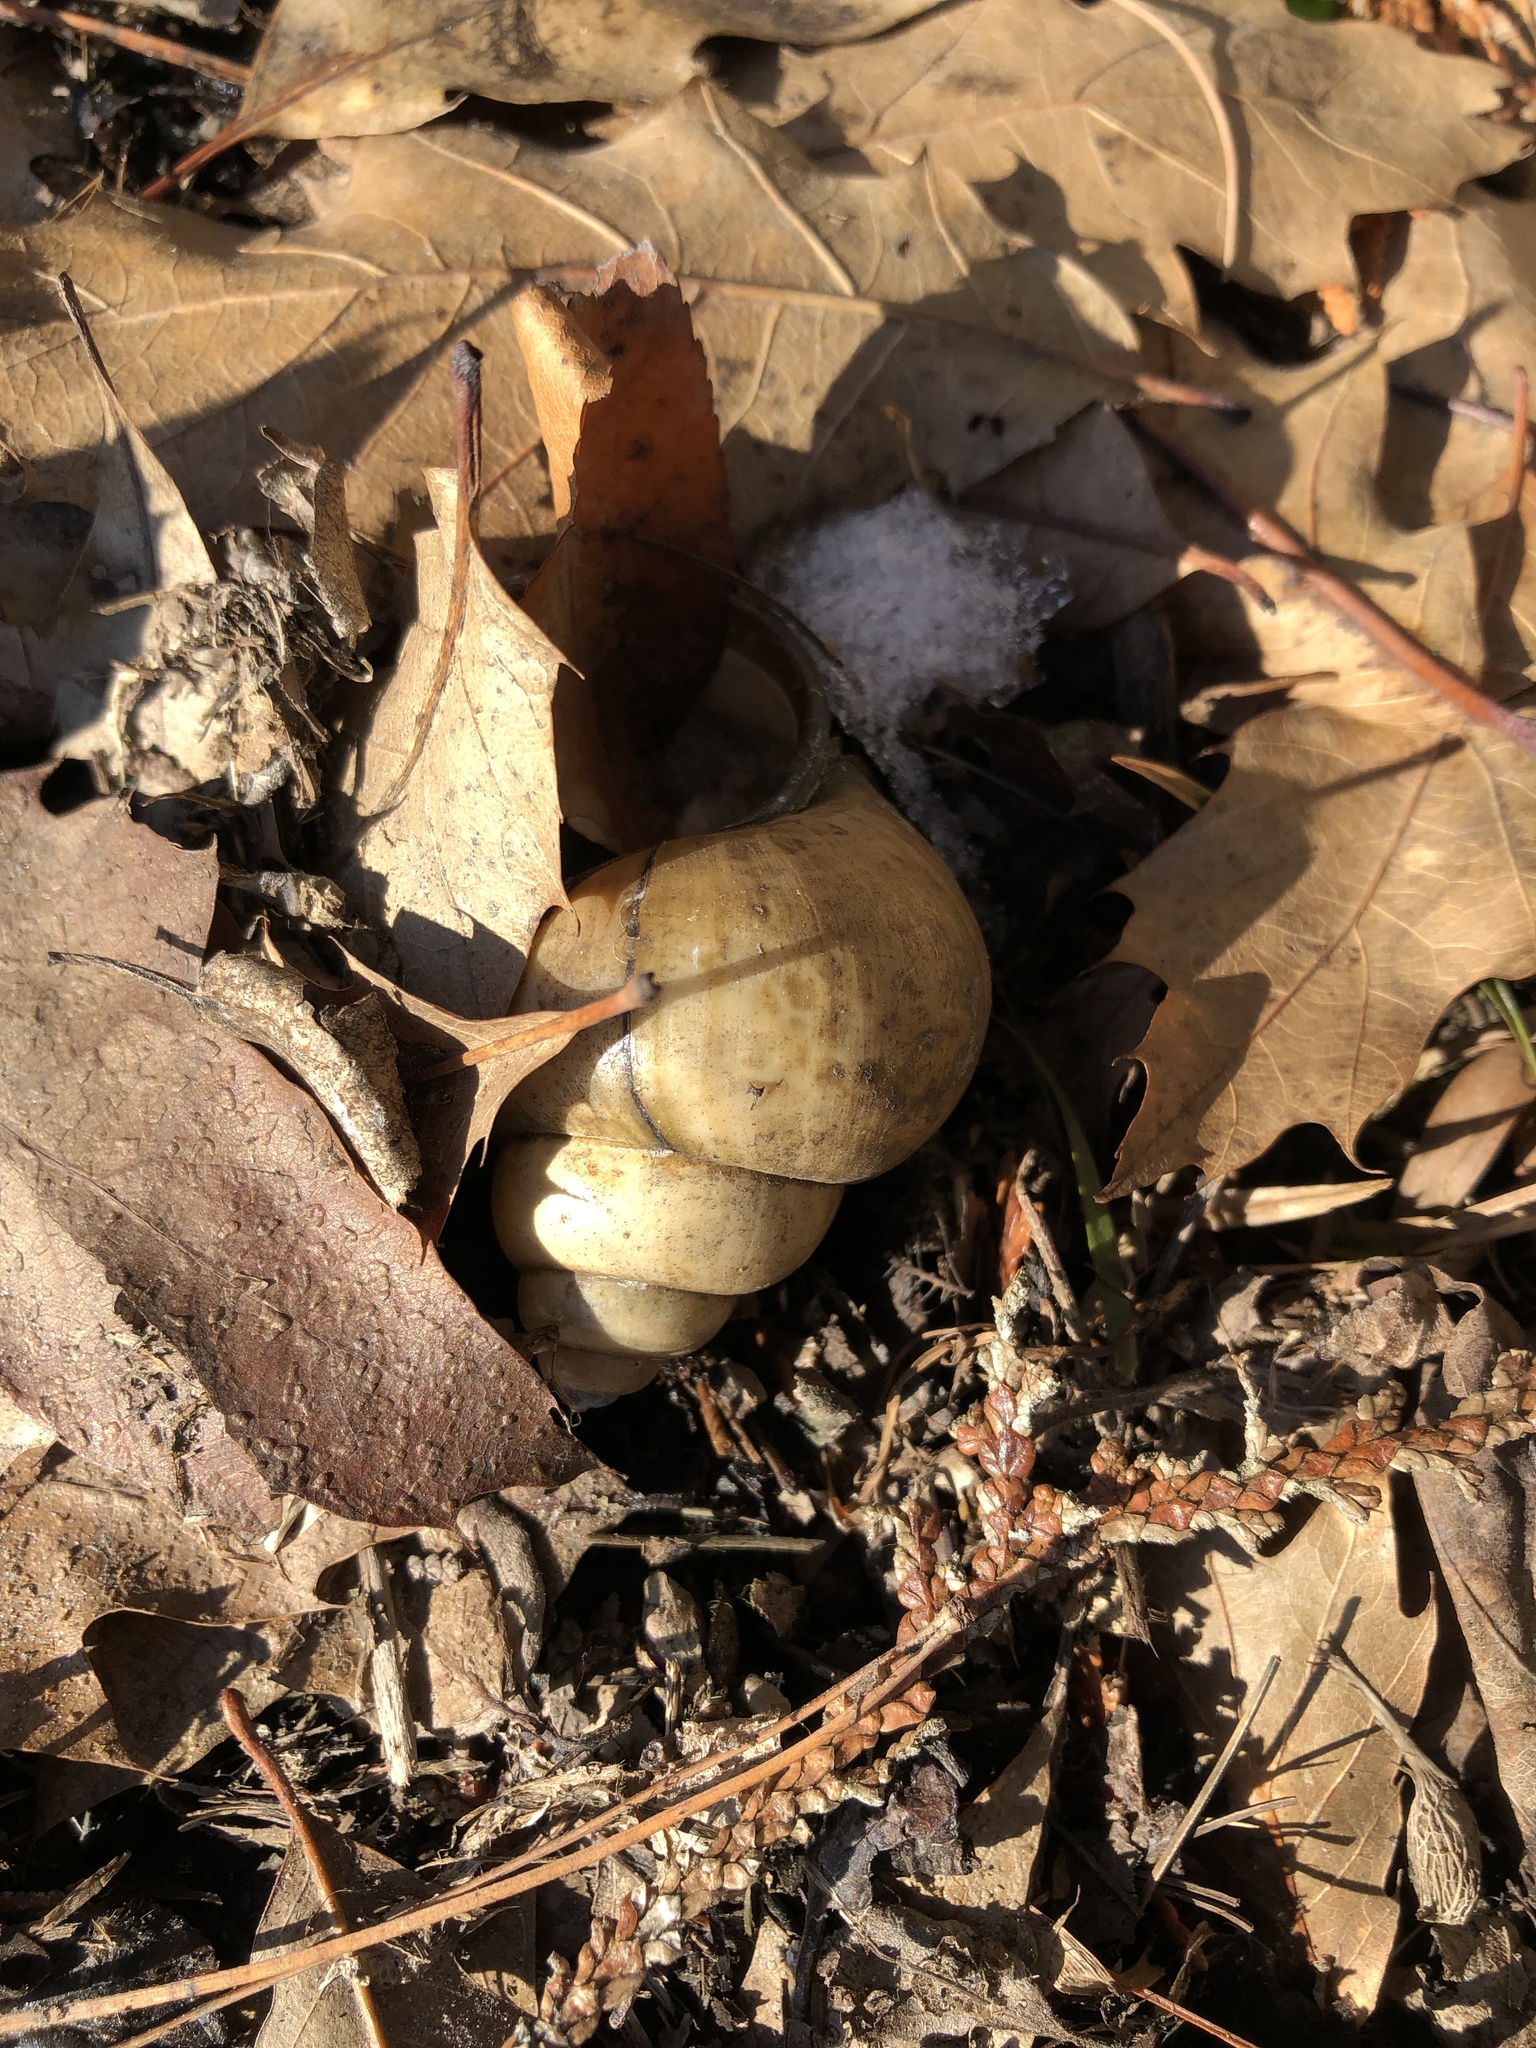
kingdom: Animalia
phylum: Mollusca
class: Gastropoda
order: Architaenioglossa
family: Viviparidae
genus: Cipangopaludina
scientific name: Cipangopaludina chinensis
